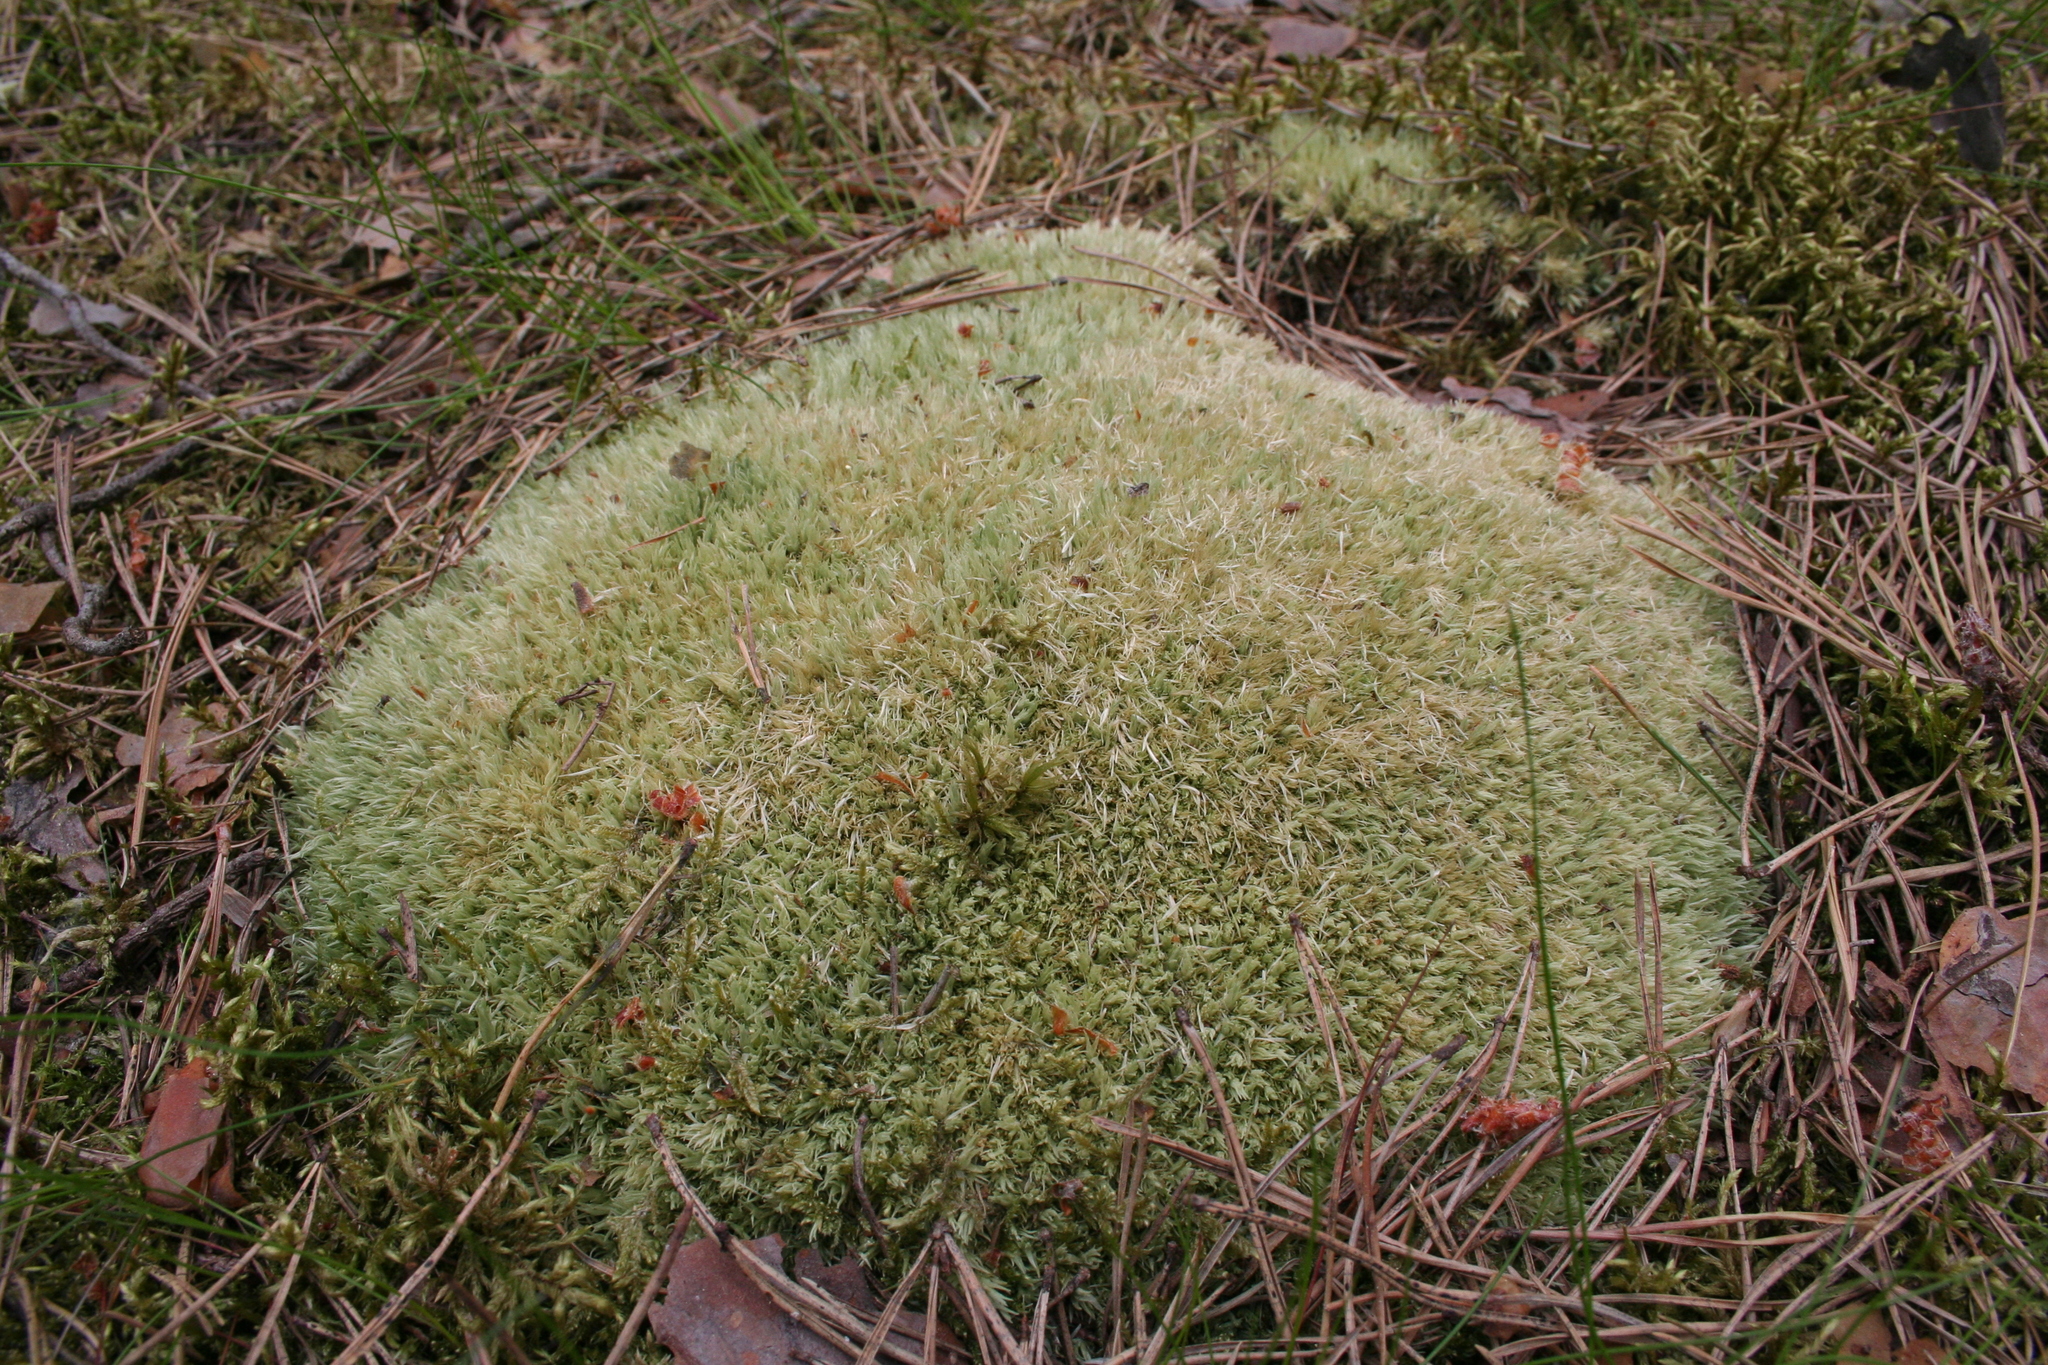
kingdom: Plantae
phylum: Bryophyta
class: Bryopsida
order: Dicranales
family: Leucobryaceae
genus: Leucobryum
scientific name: Leucobryum glaucum
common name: Large white-moss
